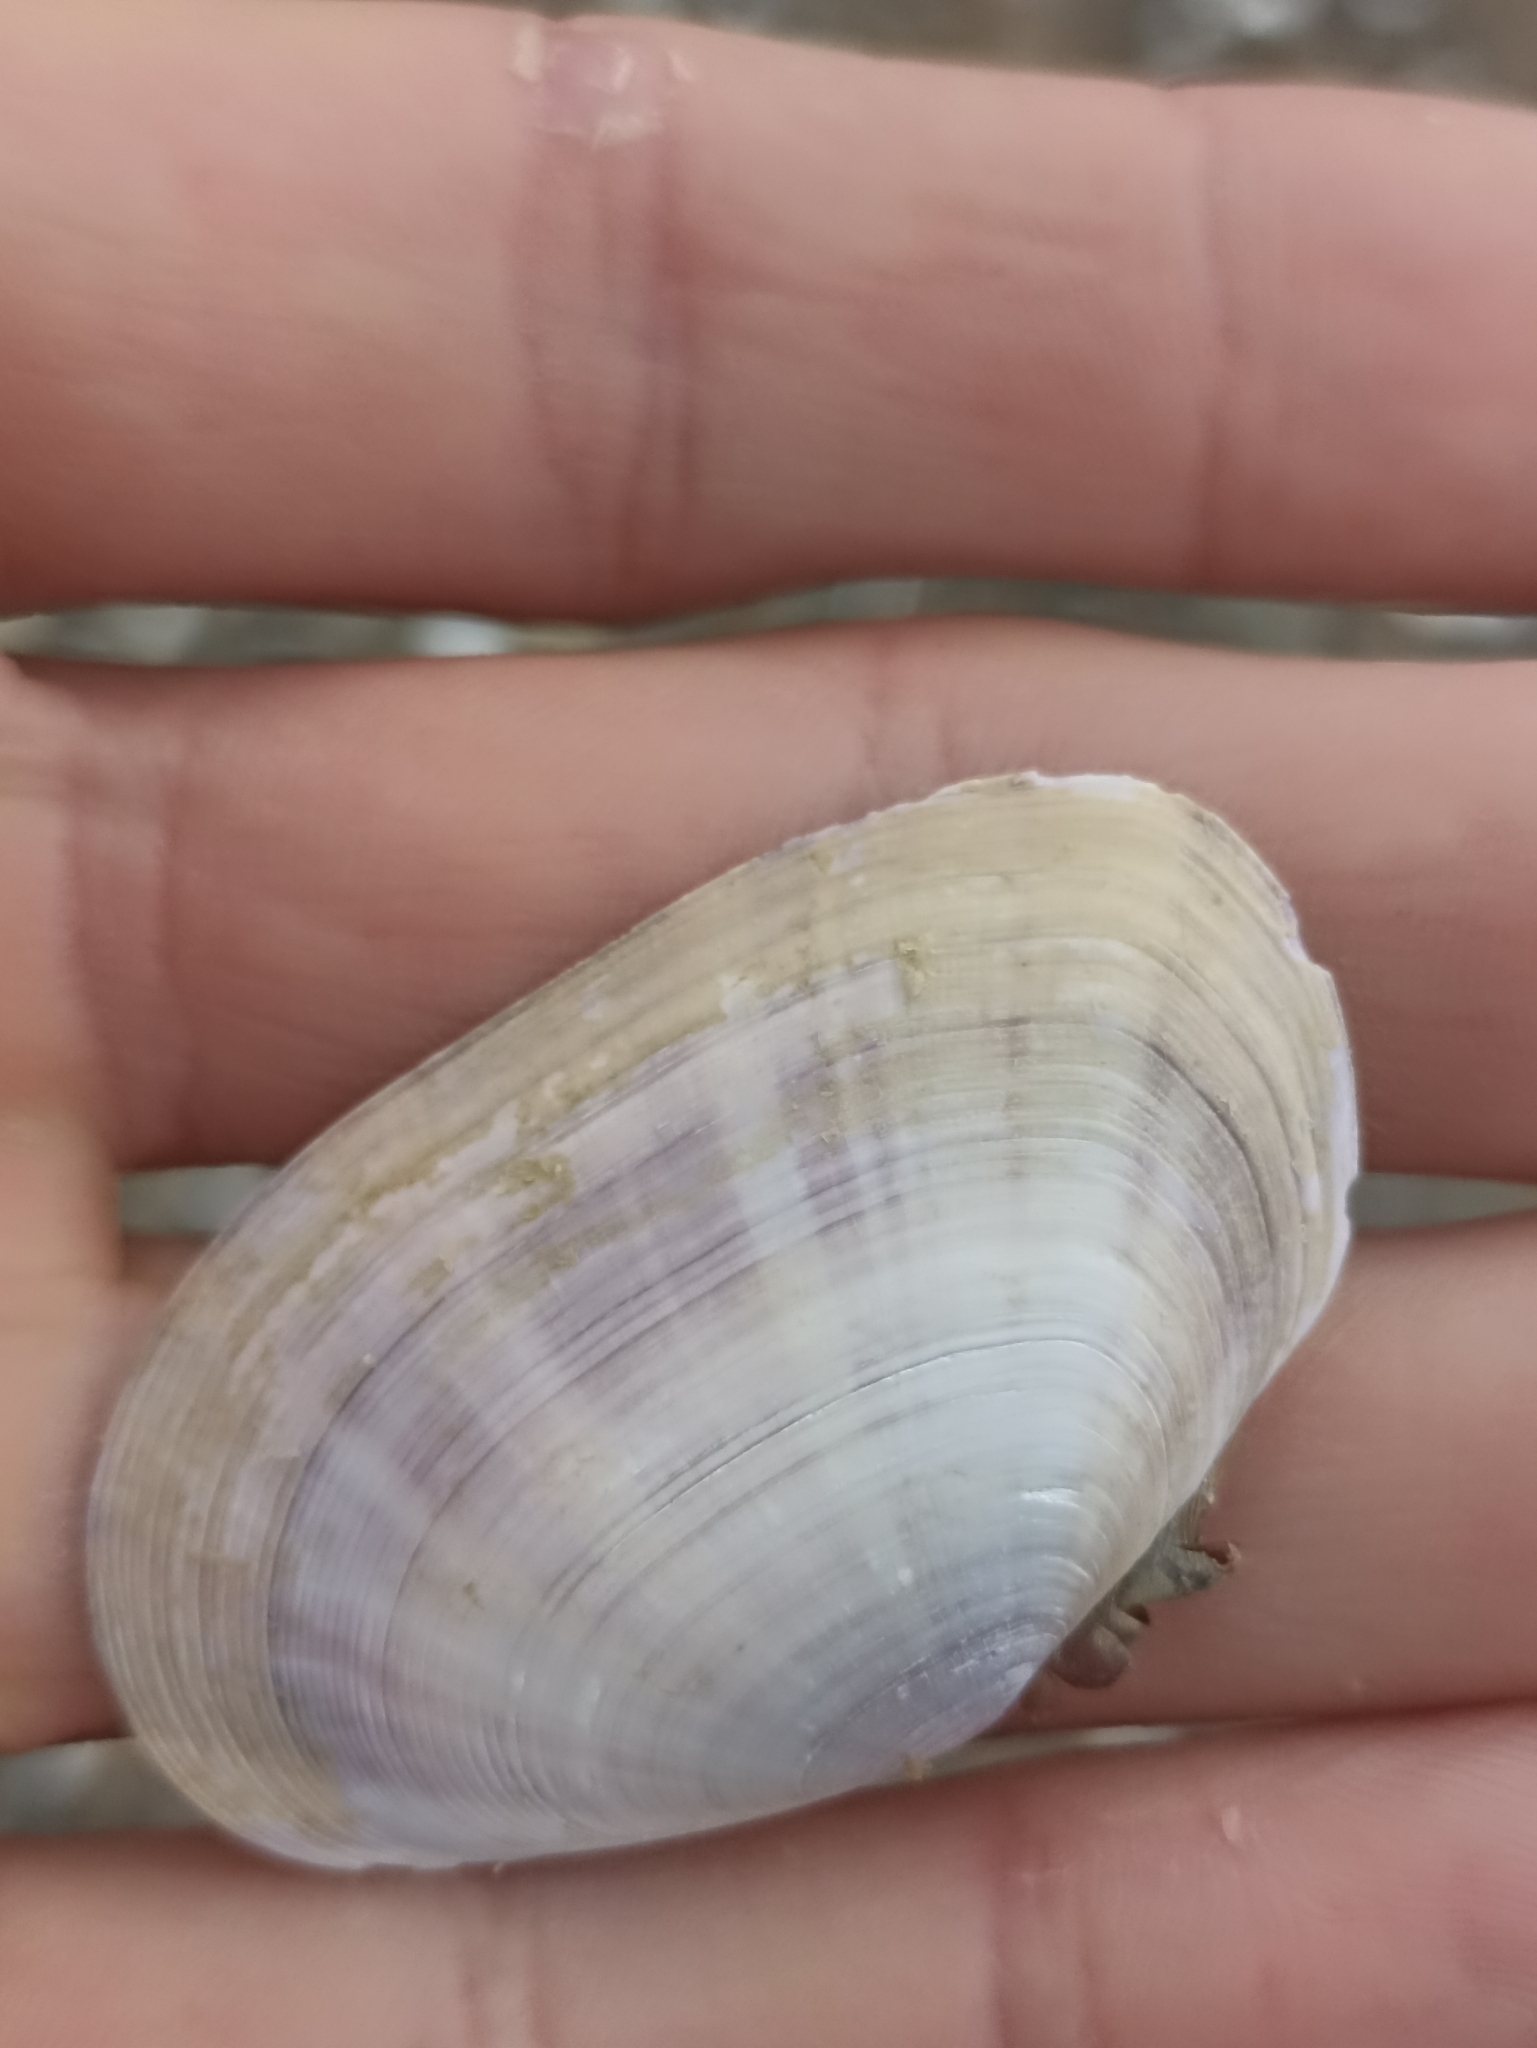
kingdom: Animalia
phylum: Mollusca
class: Bivalvia
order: Cardiida
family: Psammobiidae
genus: Gari
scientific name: Gari stangeri
